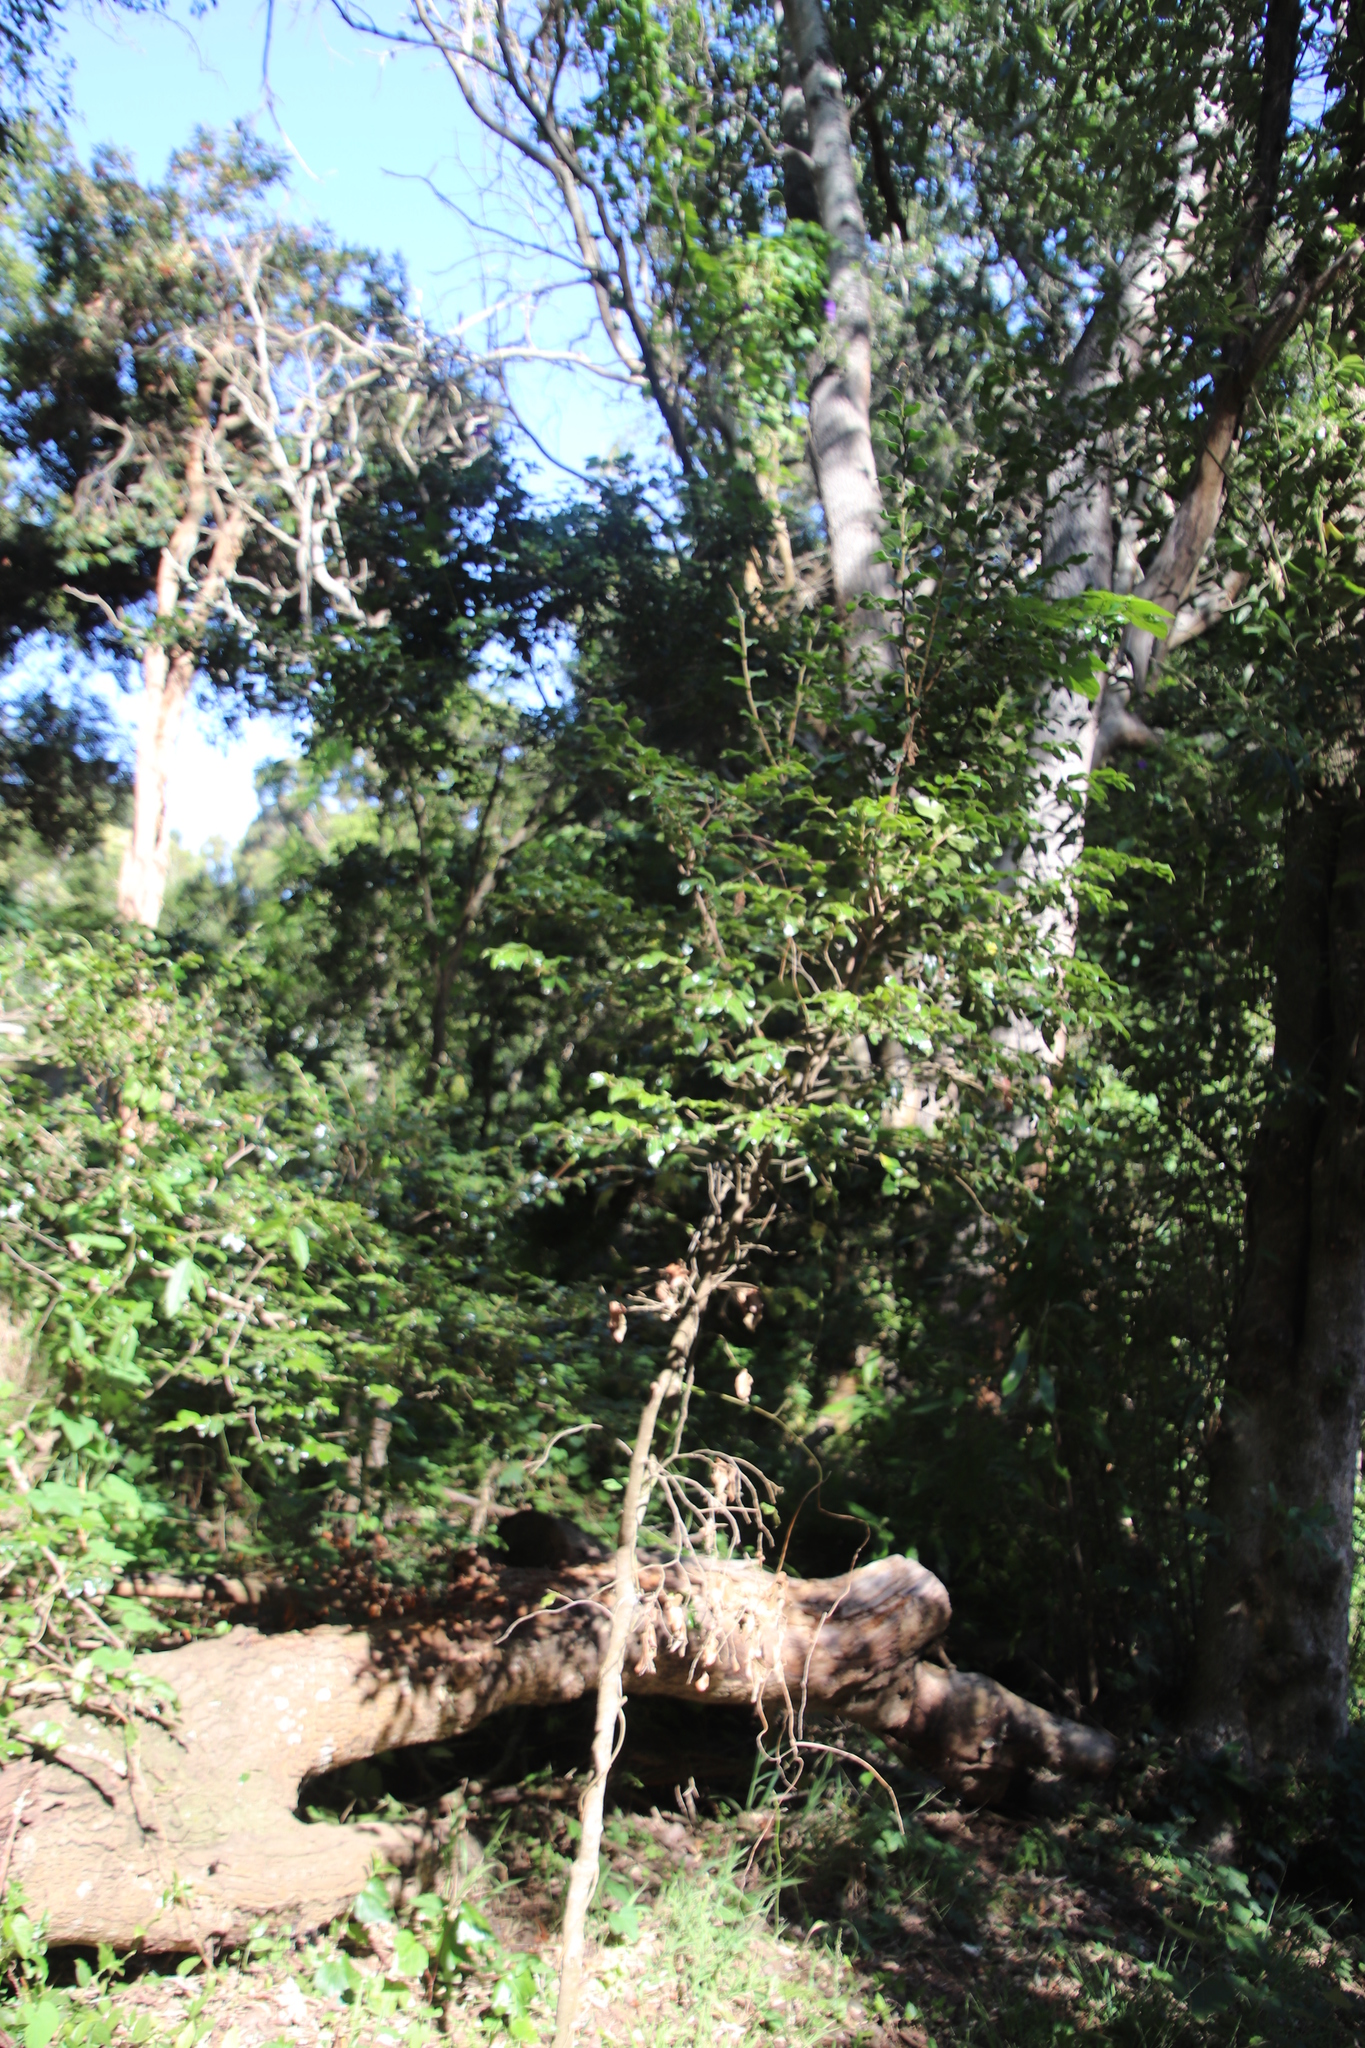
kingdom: Plantae
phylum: Tracheophyta
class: Magnoliopsida
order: Ericales
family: Ebenaceae
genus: Diospyros
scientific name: Diospyros whyteana
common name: Bladder-nut
